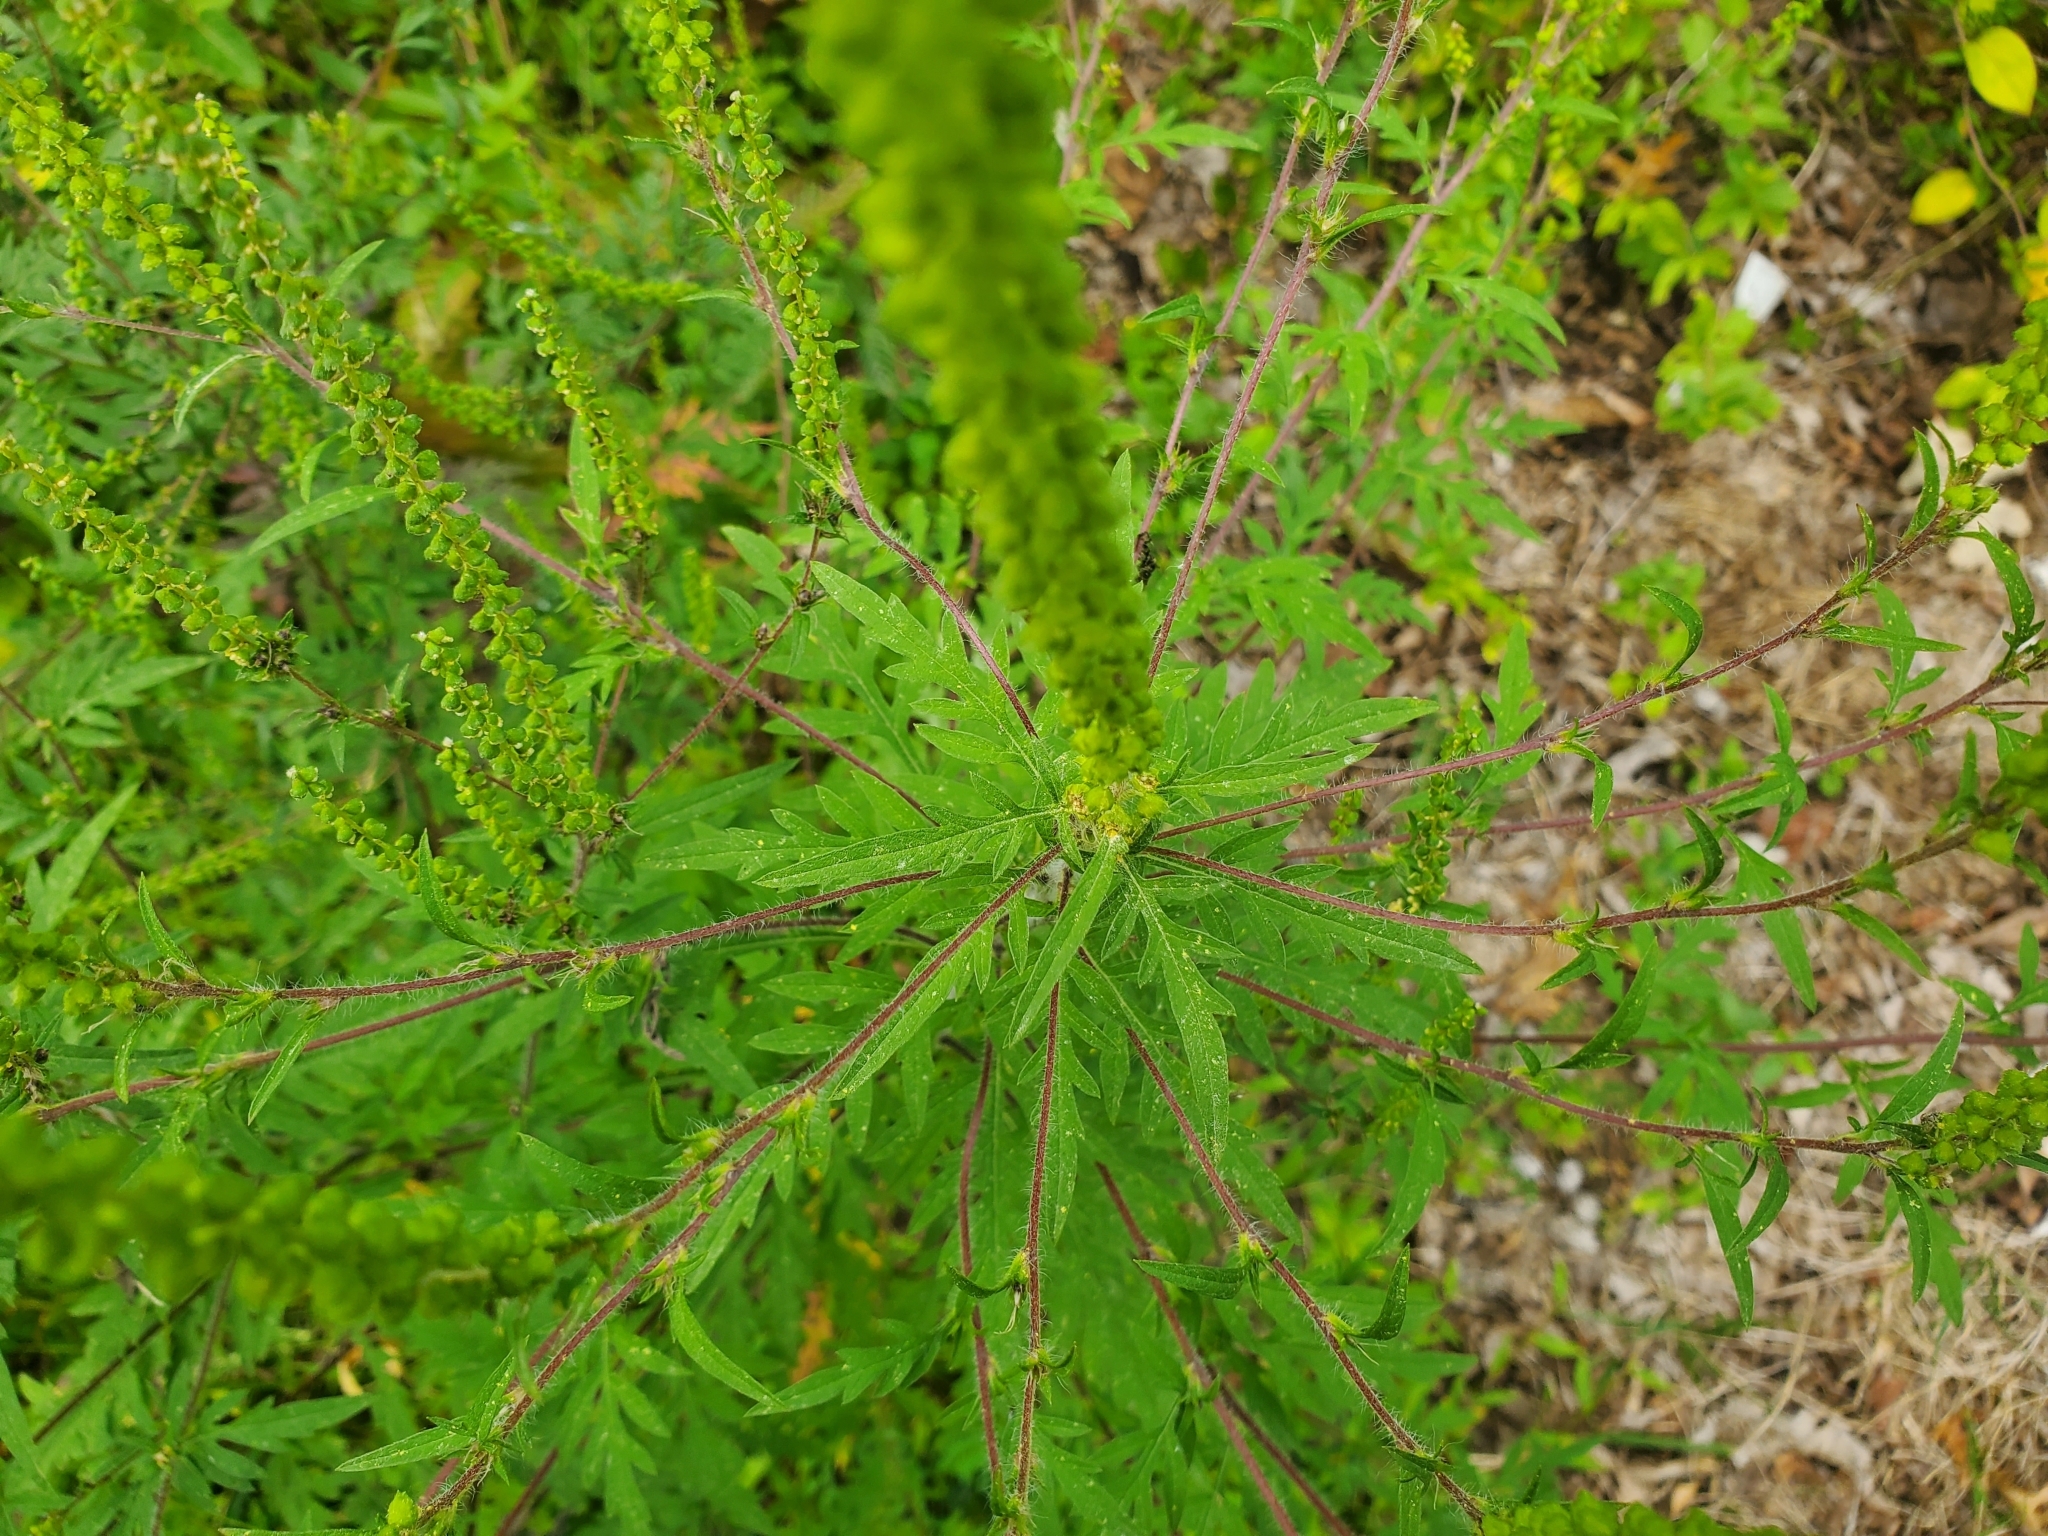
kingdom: Plantae
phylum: Tracheophyta
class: Magnoliopsida
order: Asterales
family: Asteraceae
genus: Ambrosia
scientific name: Ambrosia artemisiifolia
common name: Annual ragweed
